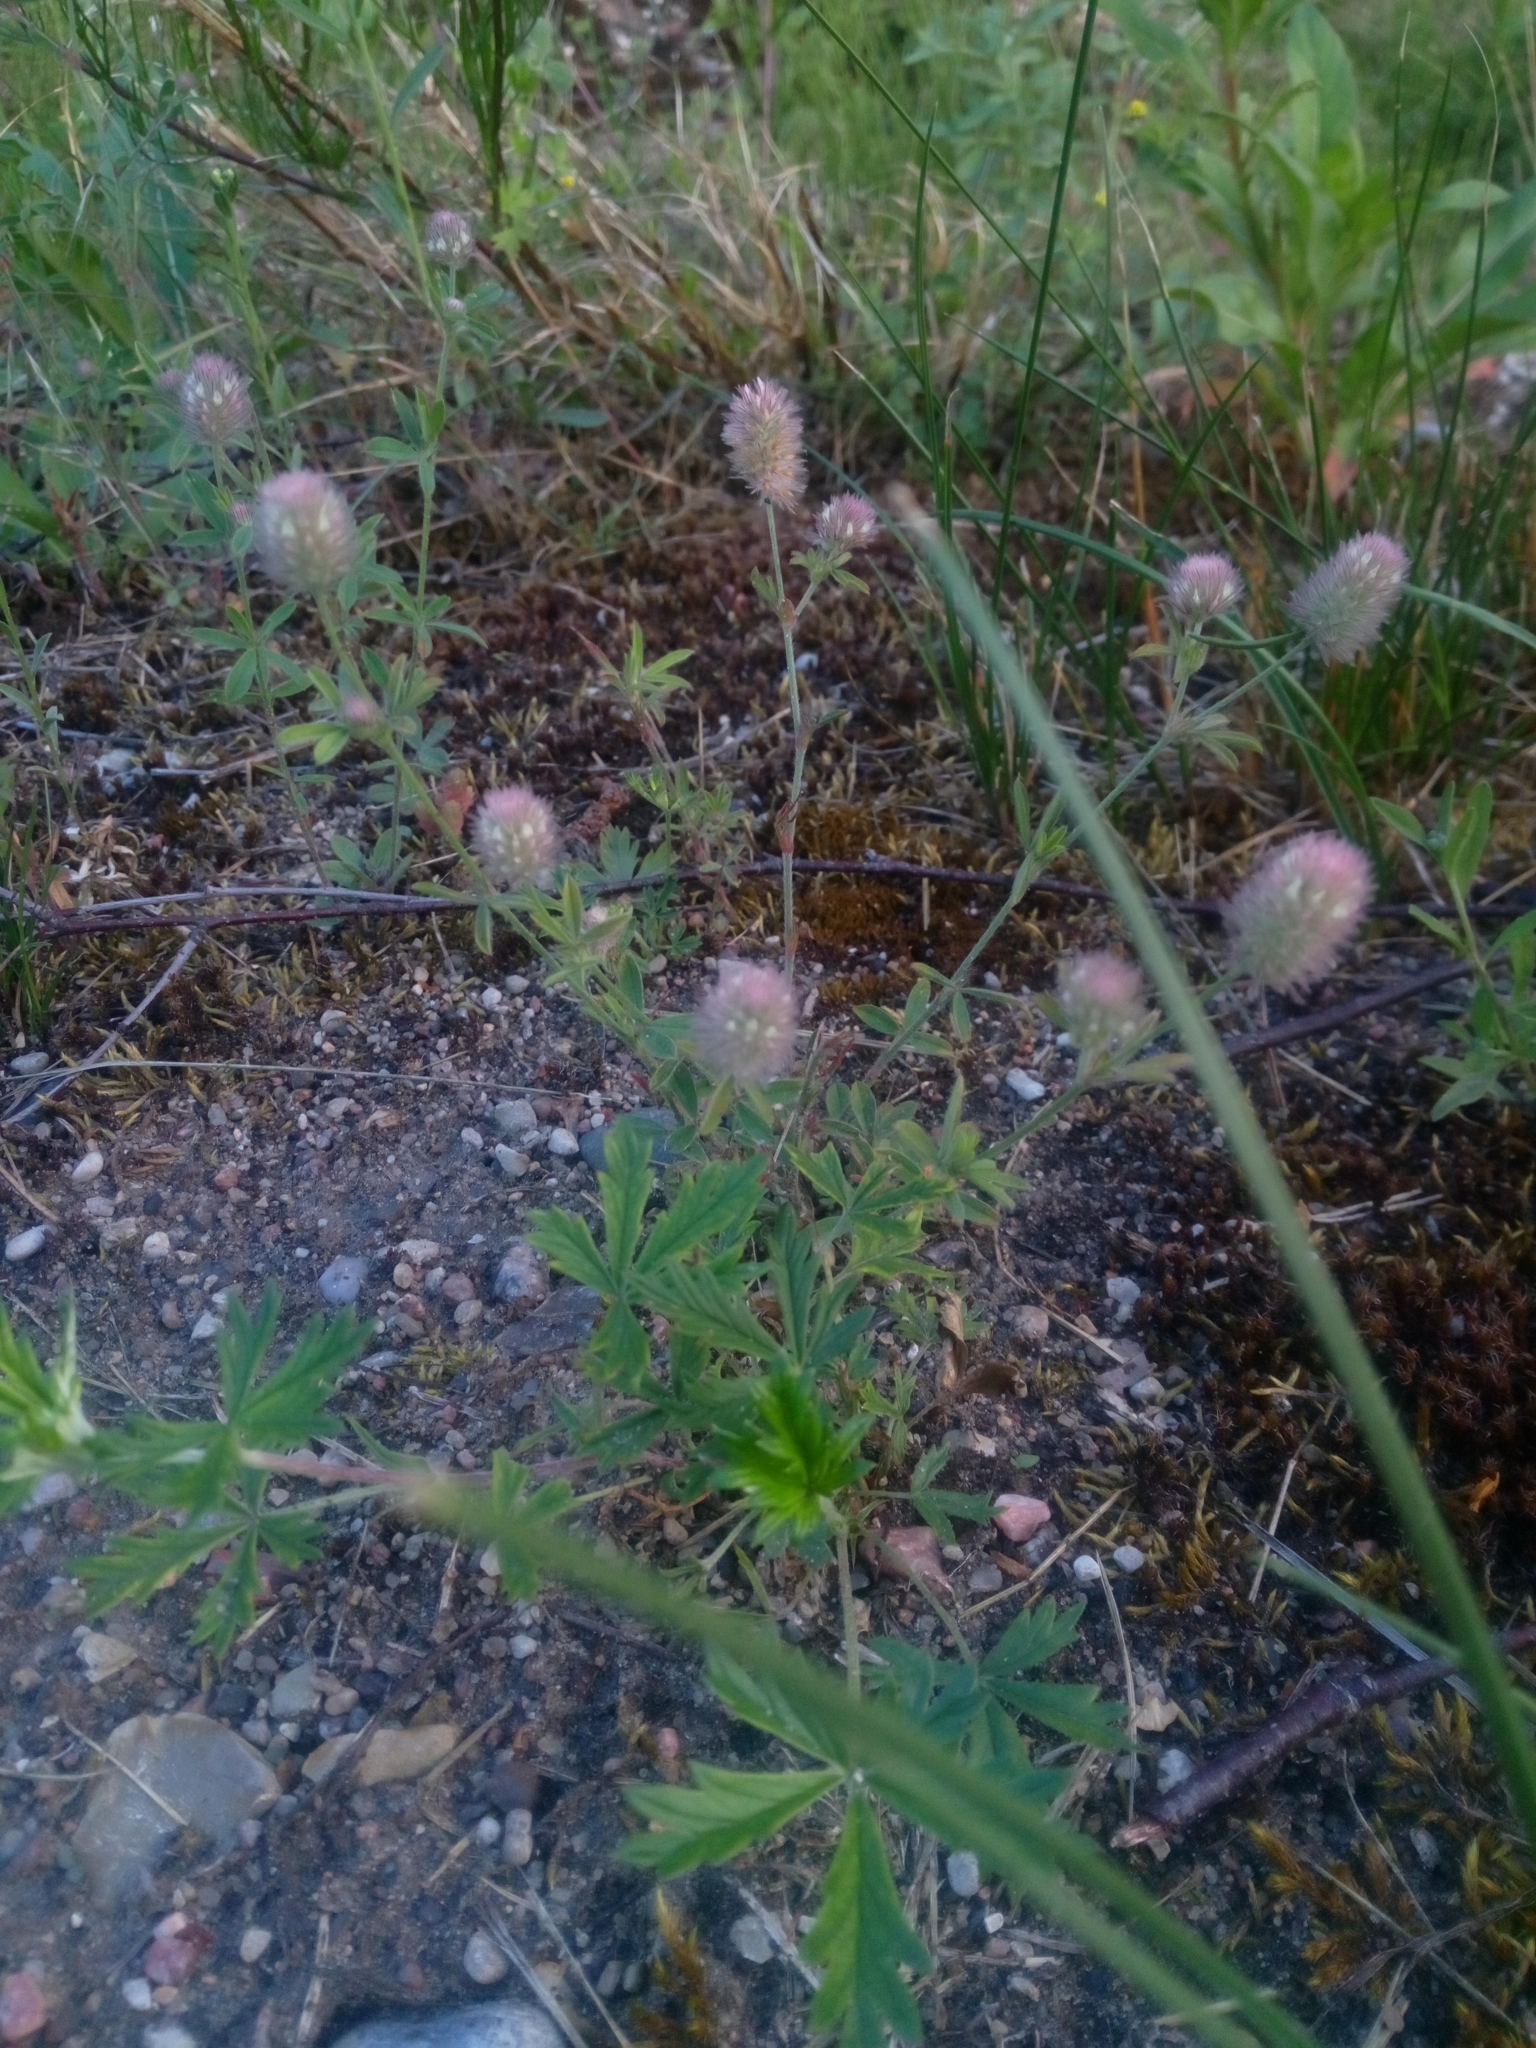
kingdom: Plantae
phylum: Tracheophyta
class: Magnoliopsida
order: Fabales
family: Fabaceae
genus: Trifolium
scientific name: Trifolium arvense
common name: Hare's-foot clover
